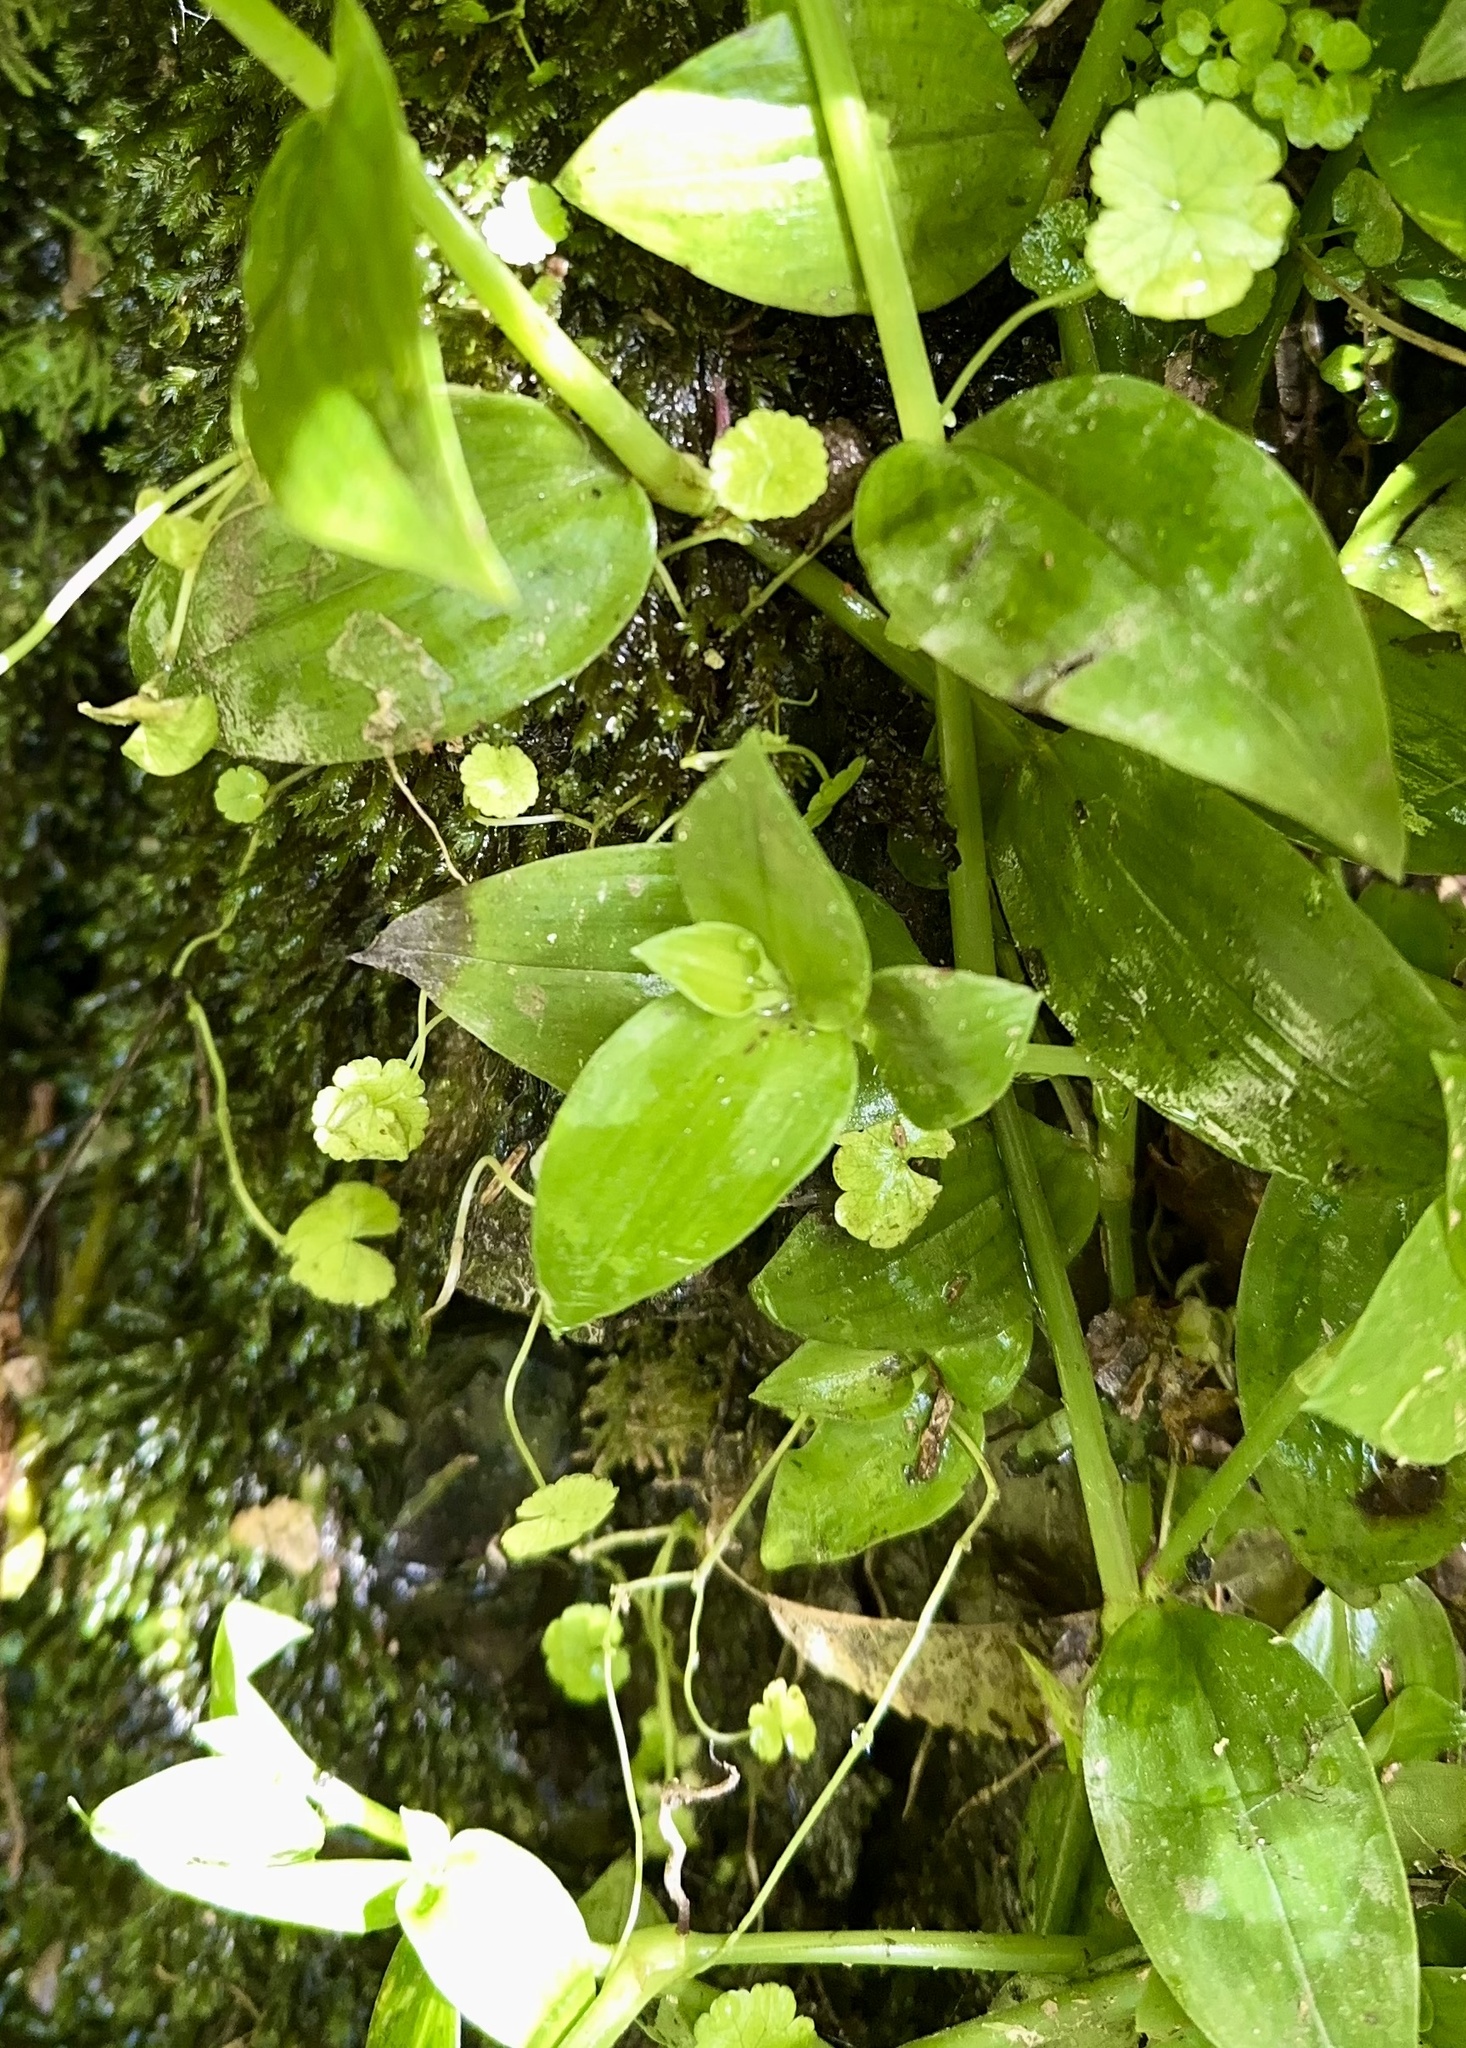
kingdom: Plantae
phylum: Tracheophyta
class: Magnoliopsida
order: Apiales
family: Araliaceae
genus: Hydrocotyle
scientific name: Hydrocotyle heteromeria
